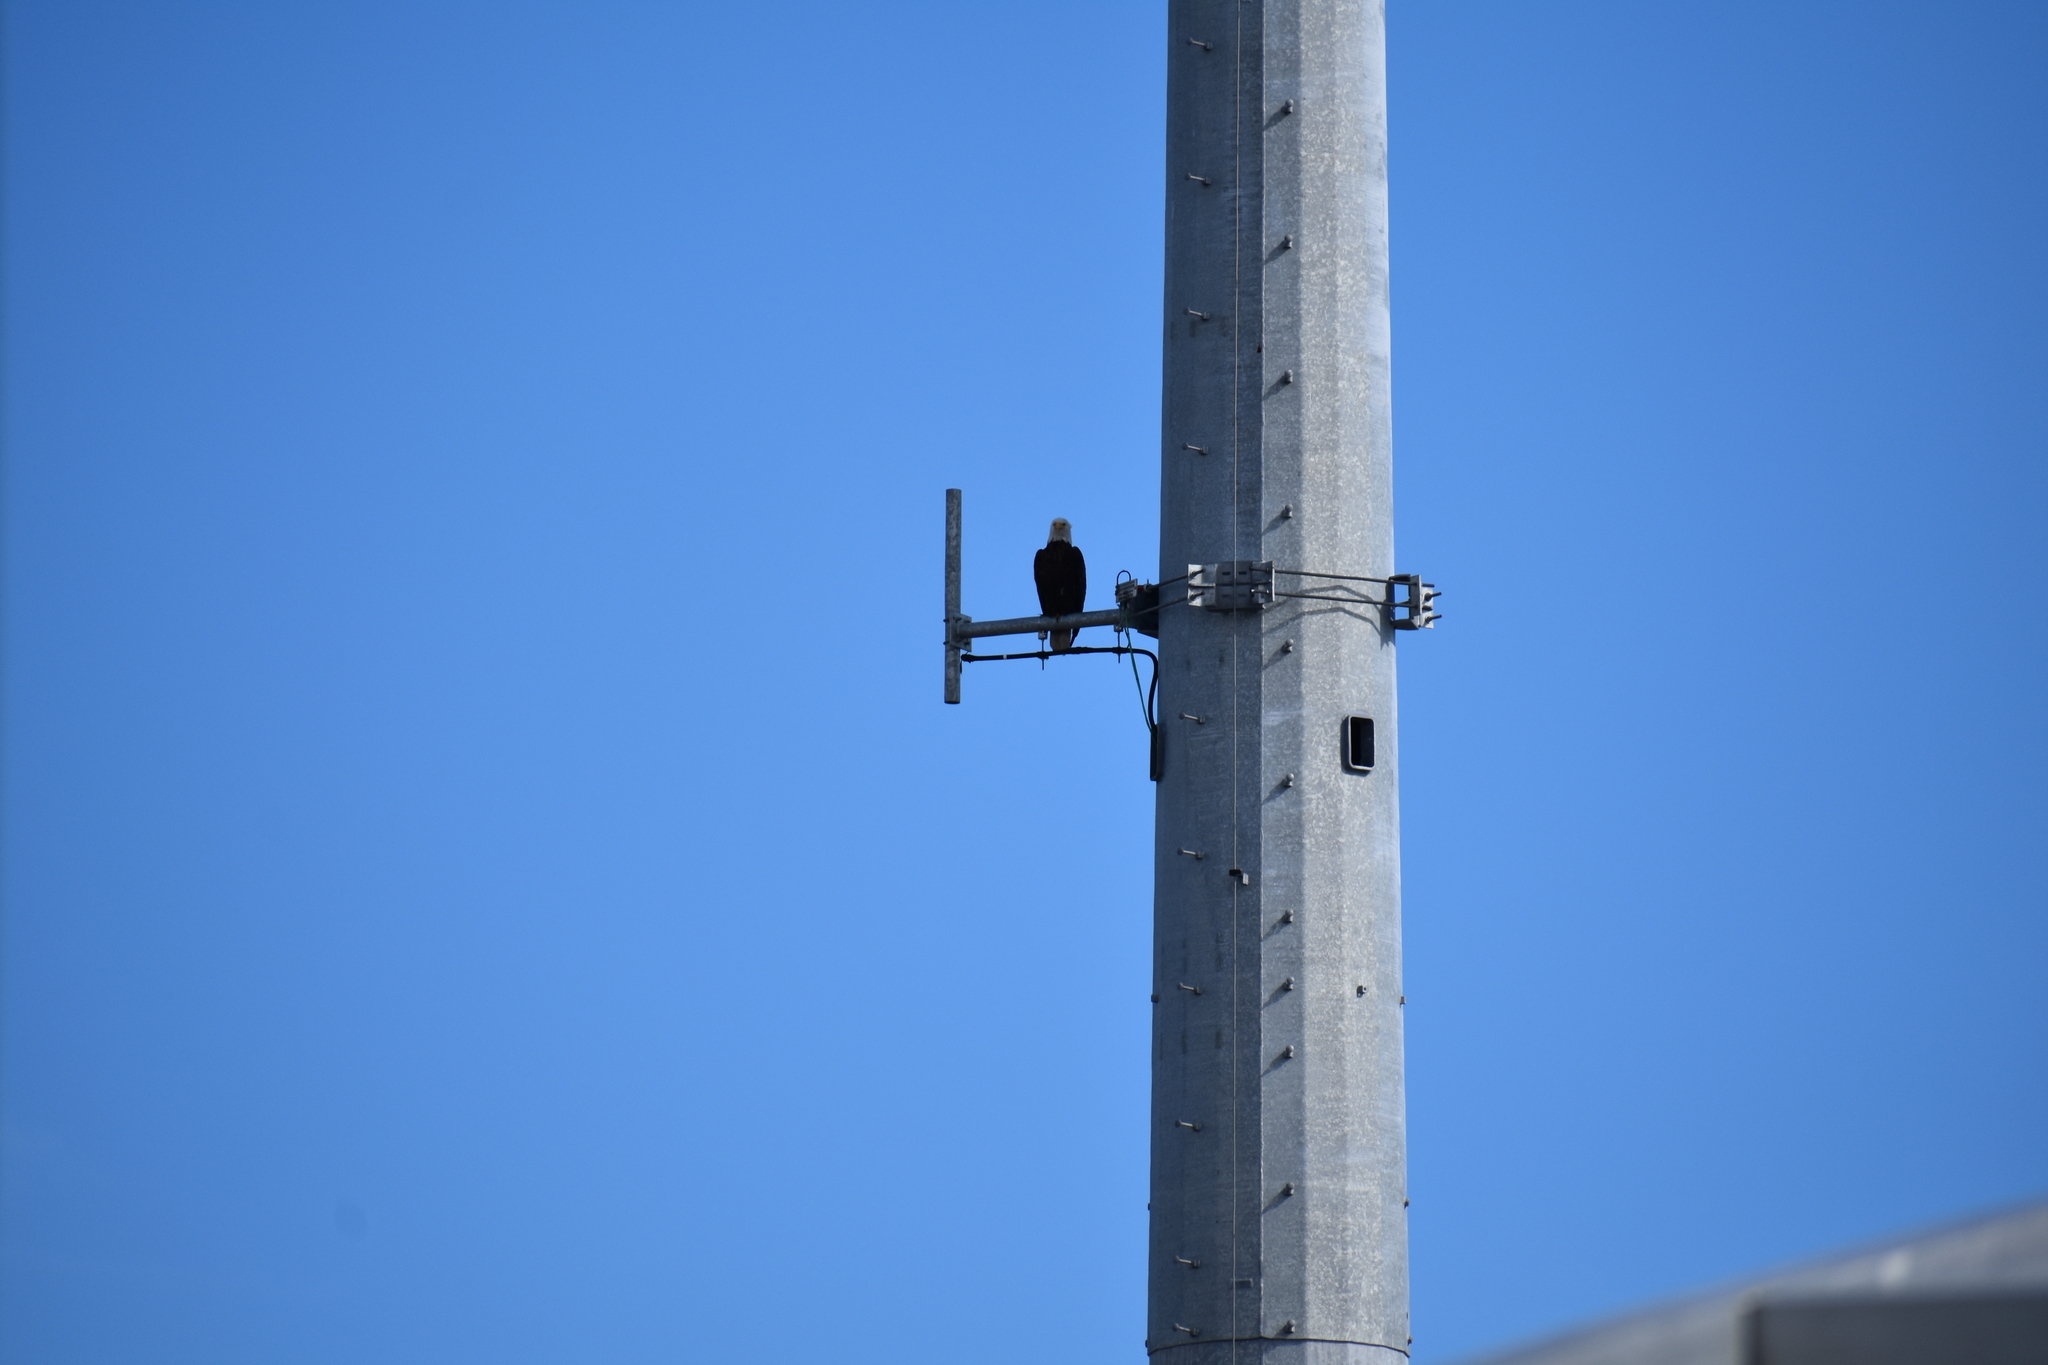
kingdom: Animalia
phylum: Chordata
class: Aves
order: Accipitriformes
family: Accipitridae
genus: Haliaeetus
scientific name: Haliaeetus leucocephalus
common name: Bald eagle
